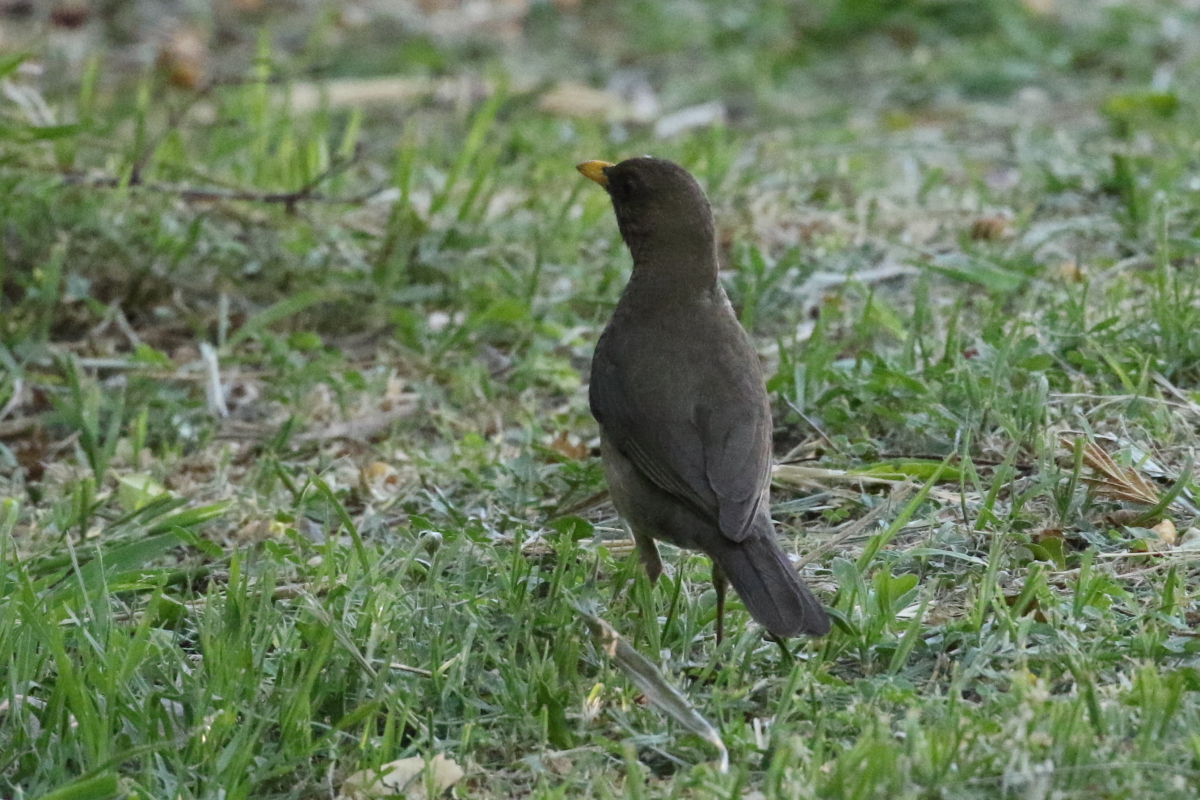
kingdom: Animalia
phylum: Chordata
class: Aves
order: Passeriformes
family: Turdidae
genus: Turdus
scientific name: Turdus amaurochalinus
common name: Creamy-bellied thrush
